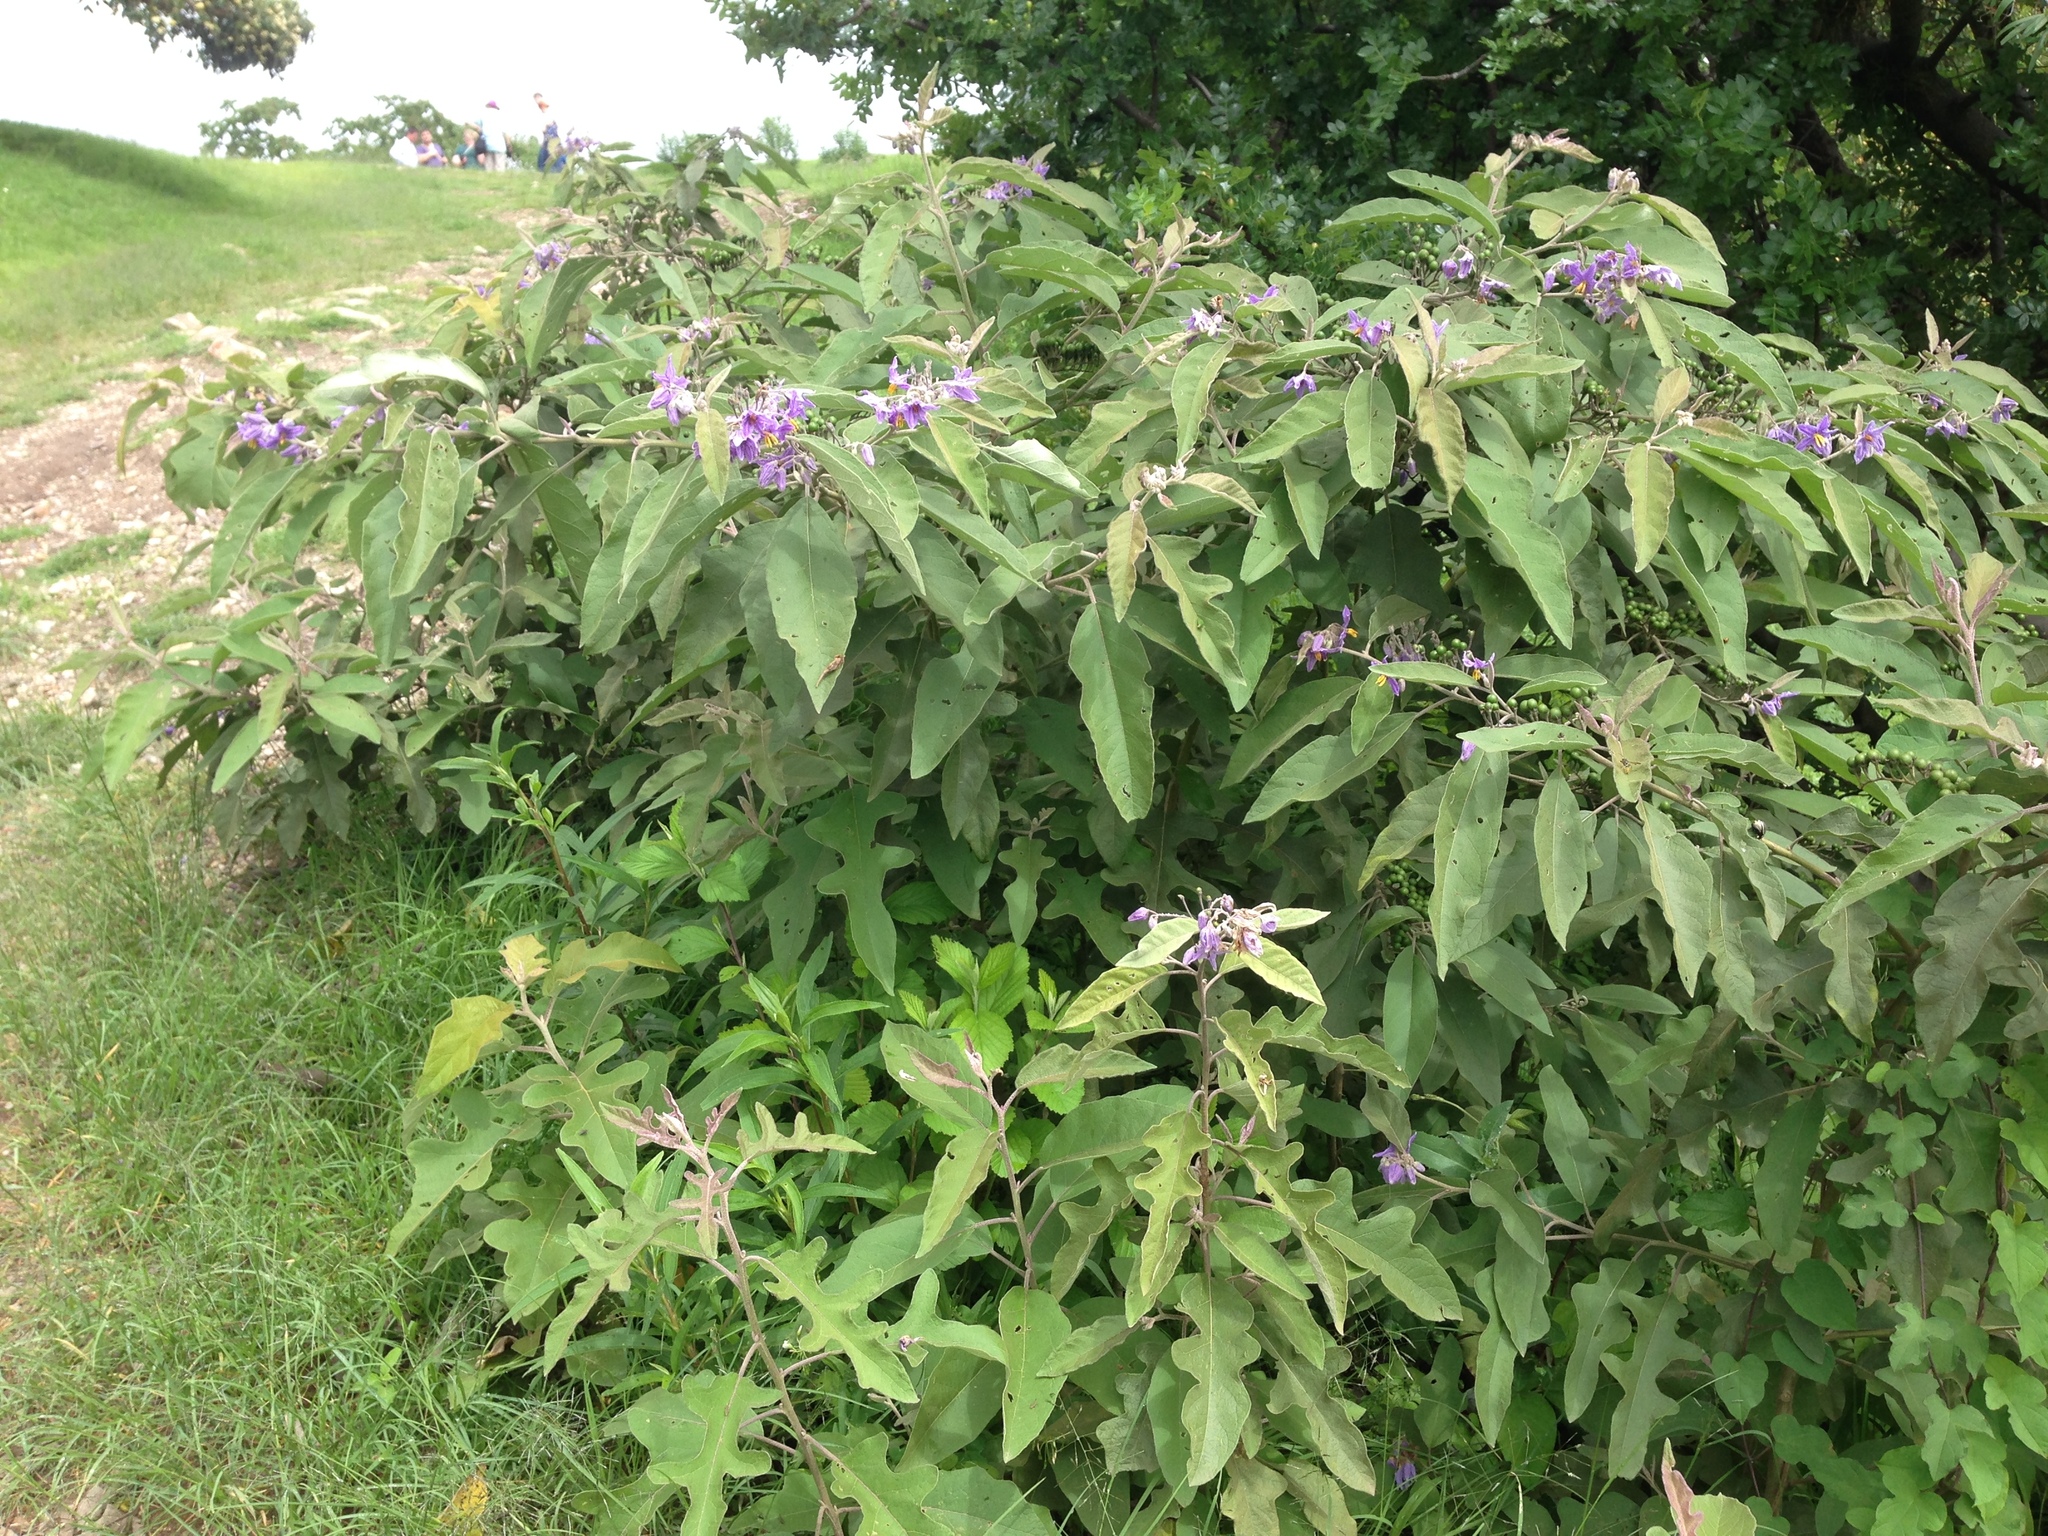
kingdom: Plantae
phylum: Tracheophyta
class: Magnoliopsida
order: Solanales
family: Solanaceae
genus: Solanum
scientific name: Solanum lanceolatum
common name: Orangeberry nightshade
